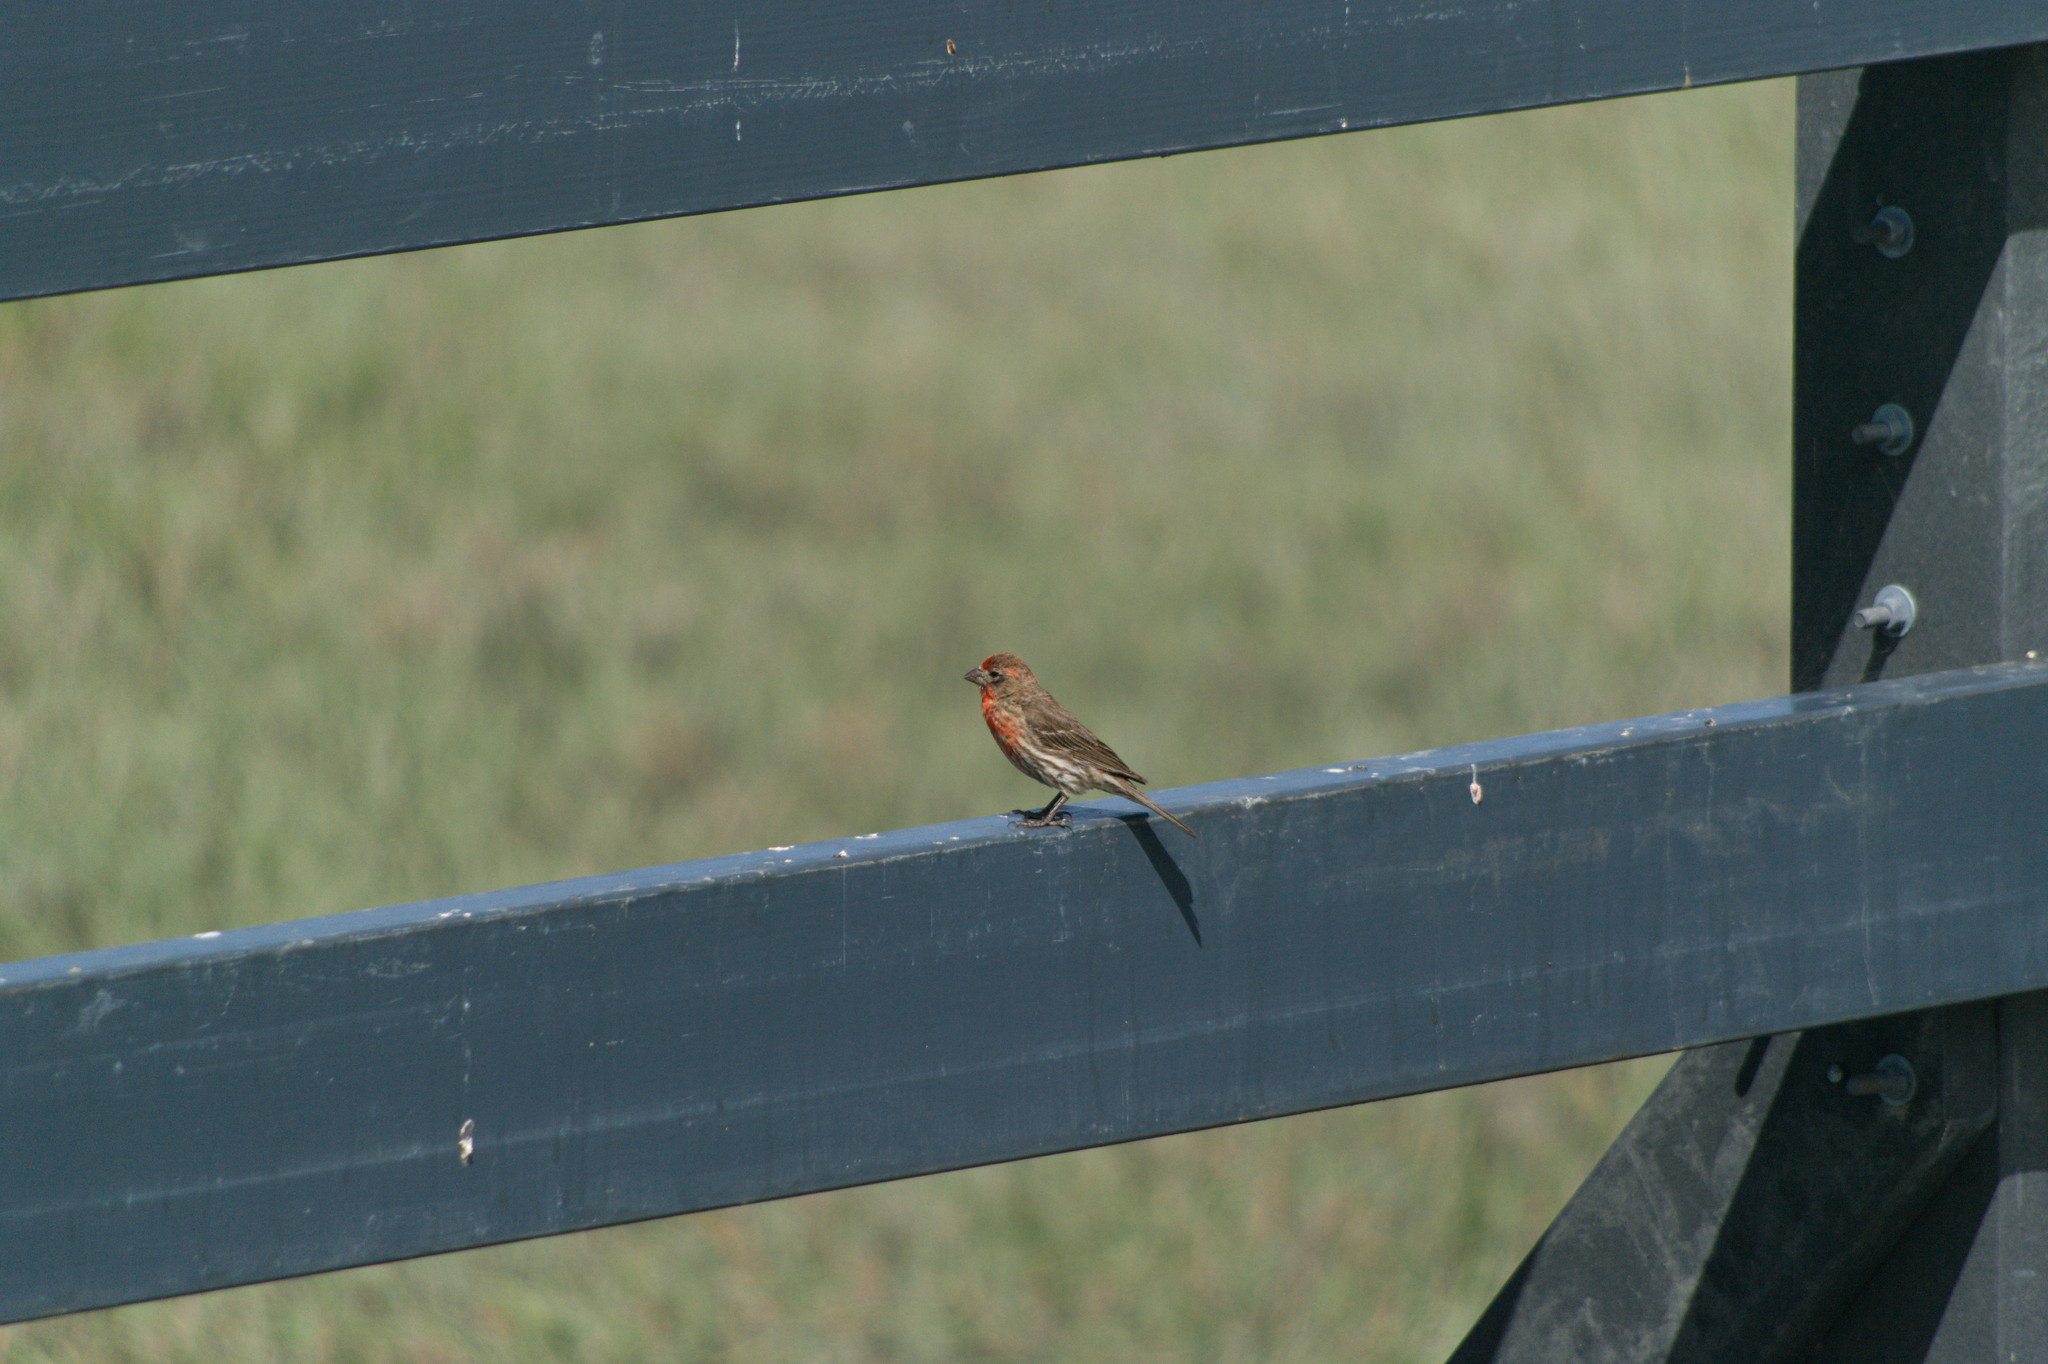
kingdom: Animalia
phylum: Chordata
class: Aves
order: Passeriformes
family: Fringillidae
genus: Haemorhous
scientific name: Haemorhous mexicanus
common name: House finch
